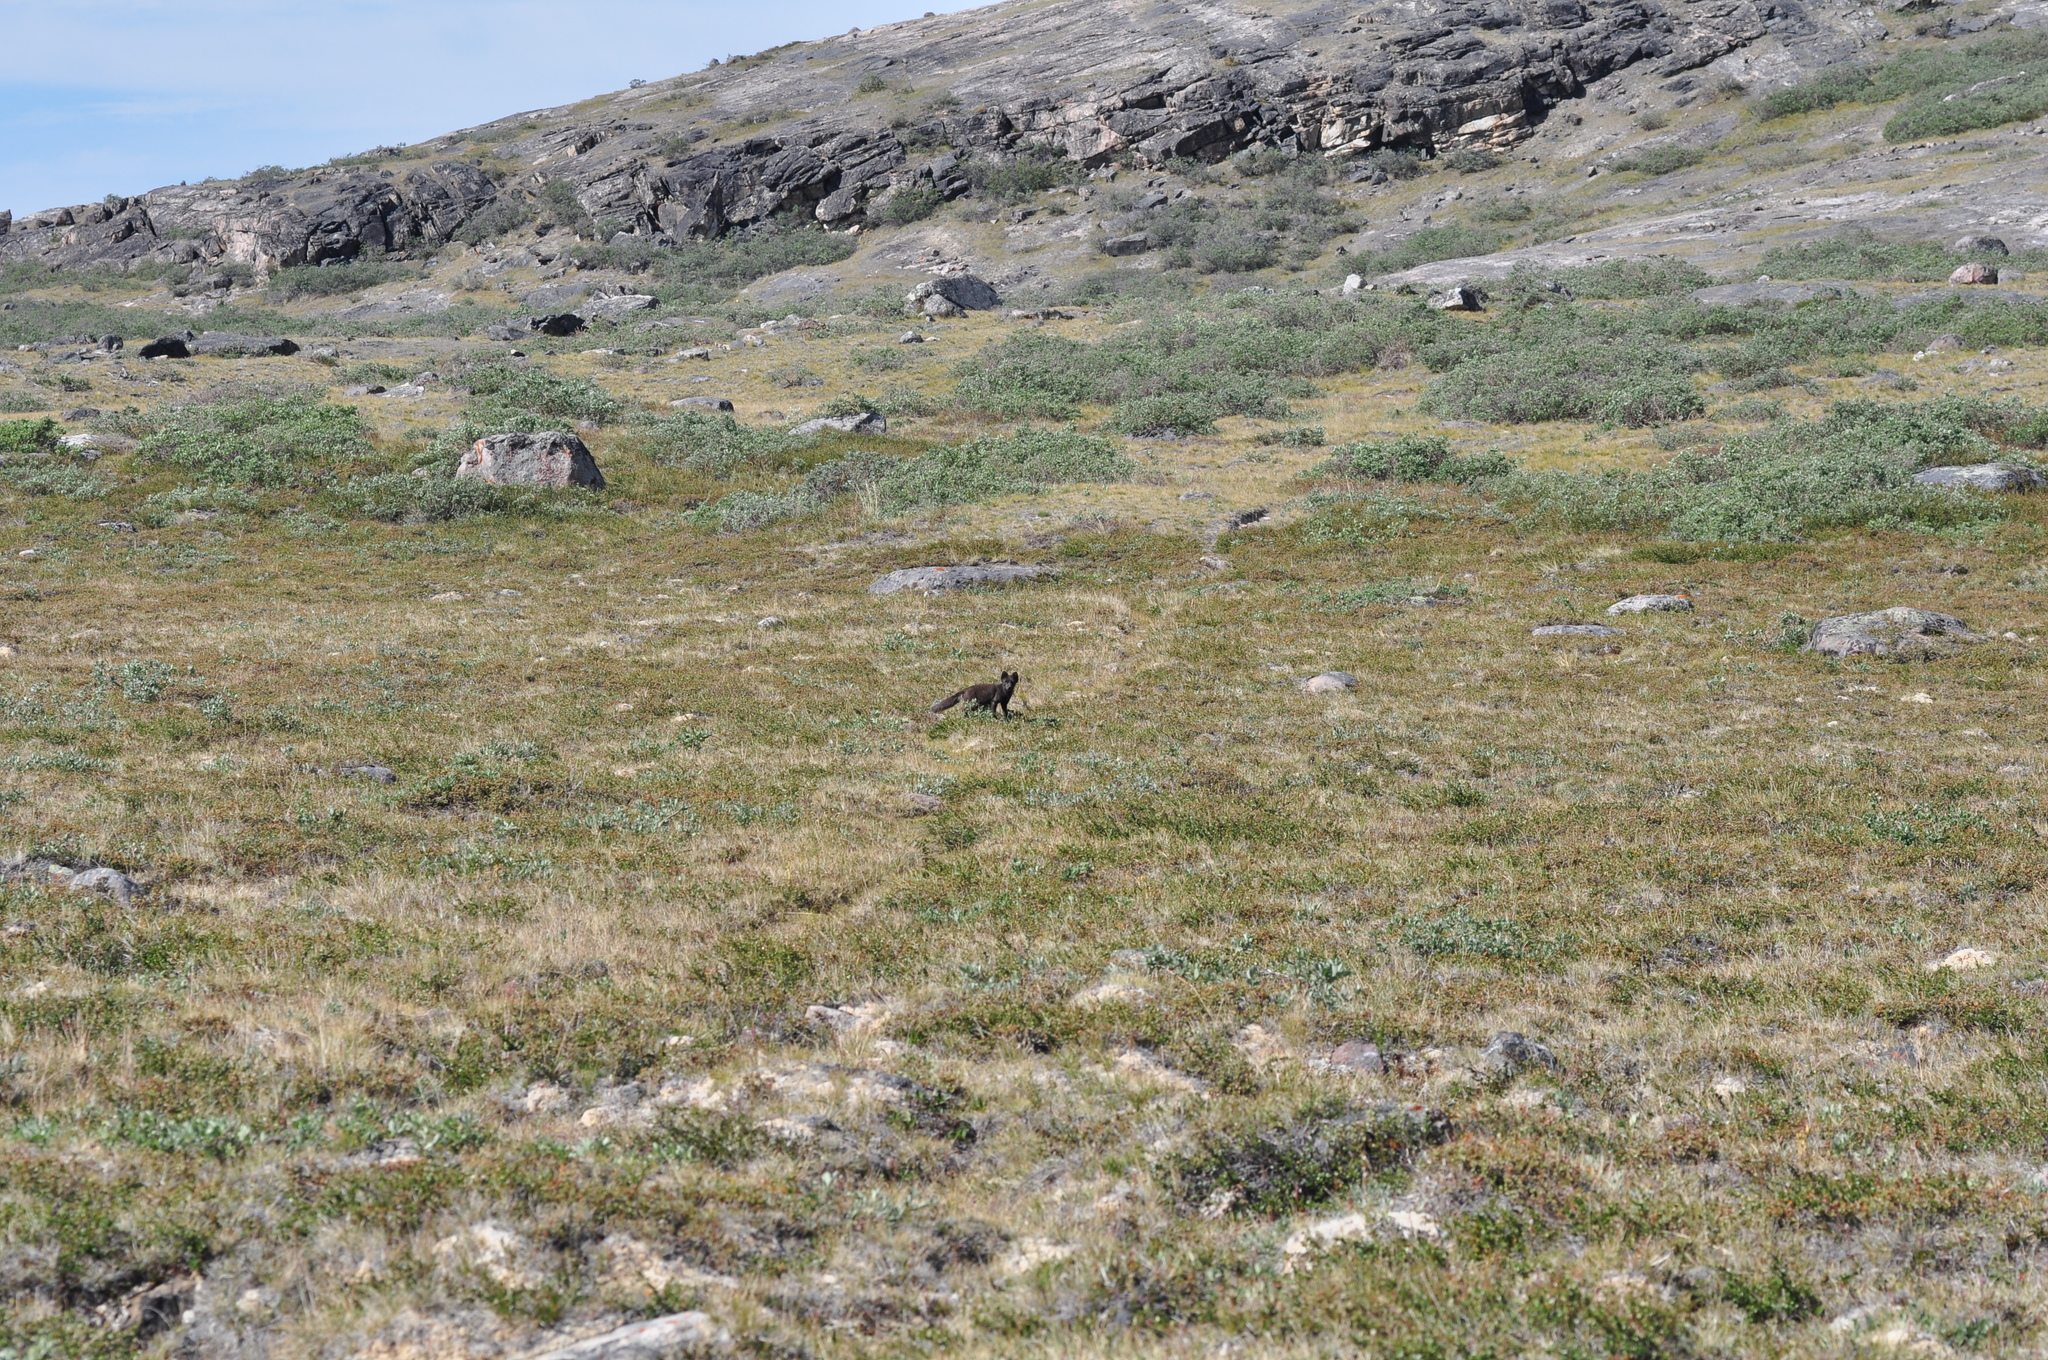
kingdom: Animalia
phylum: Chordata
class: Mammalia
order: Carnivora
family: Canidae
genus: Vulpes
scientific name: Vulpes lagopus
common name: Arctic fox
